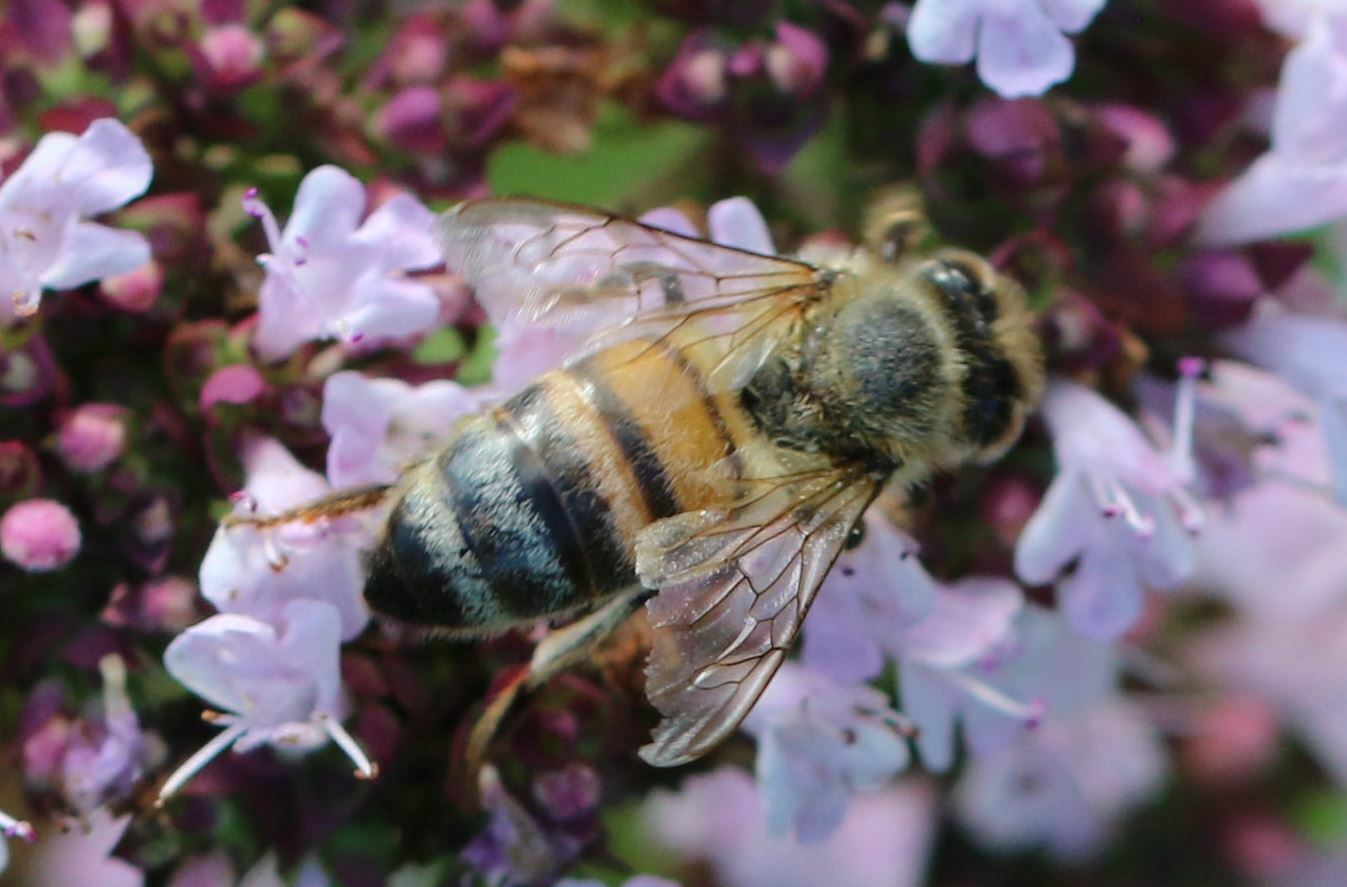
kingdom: Animalia
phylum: Arthropoda
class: Insecta
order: Hymenoptera
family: Apidae
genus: Apis
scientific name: Apis mellifera
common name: Honey bee
